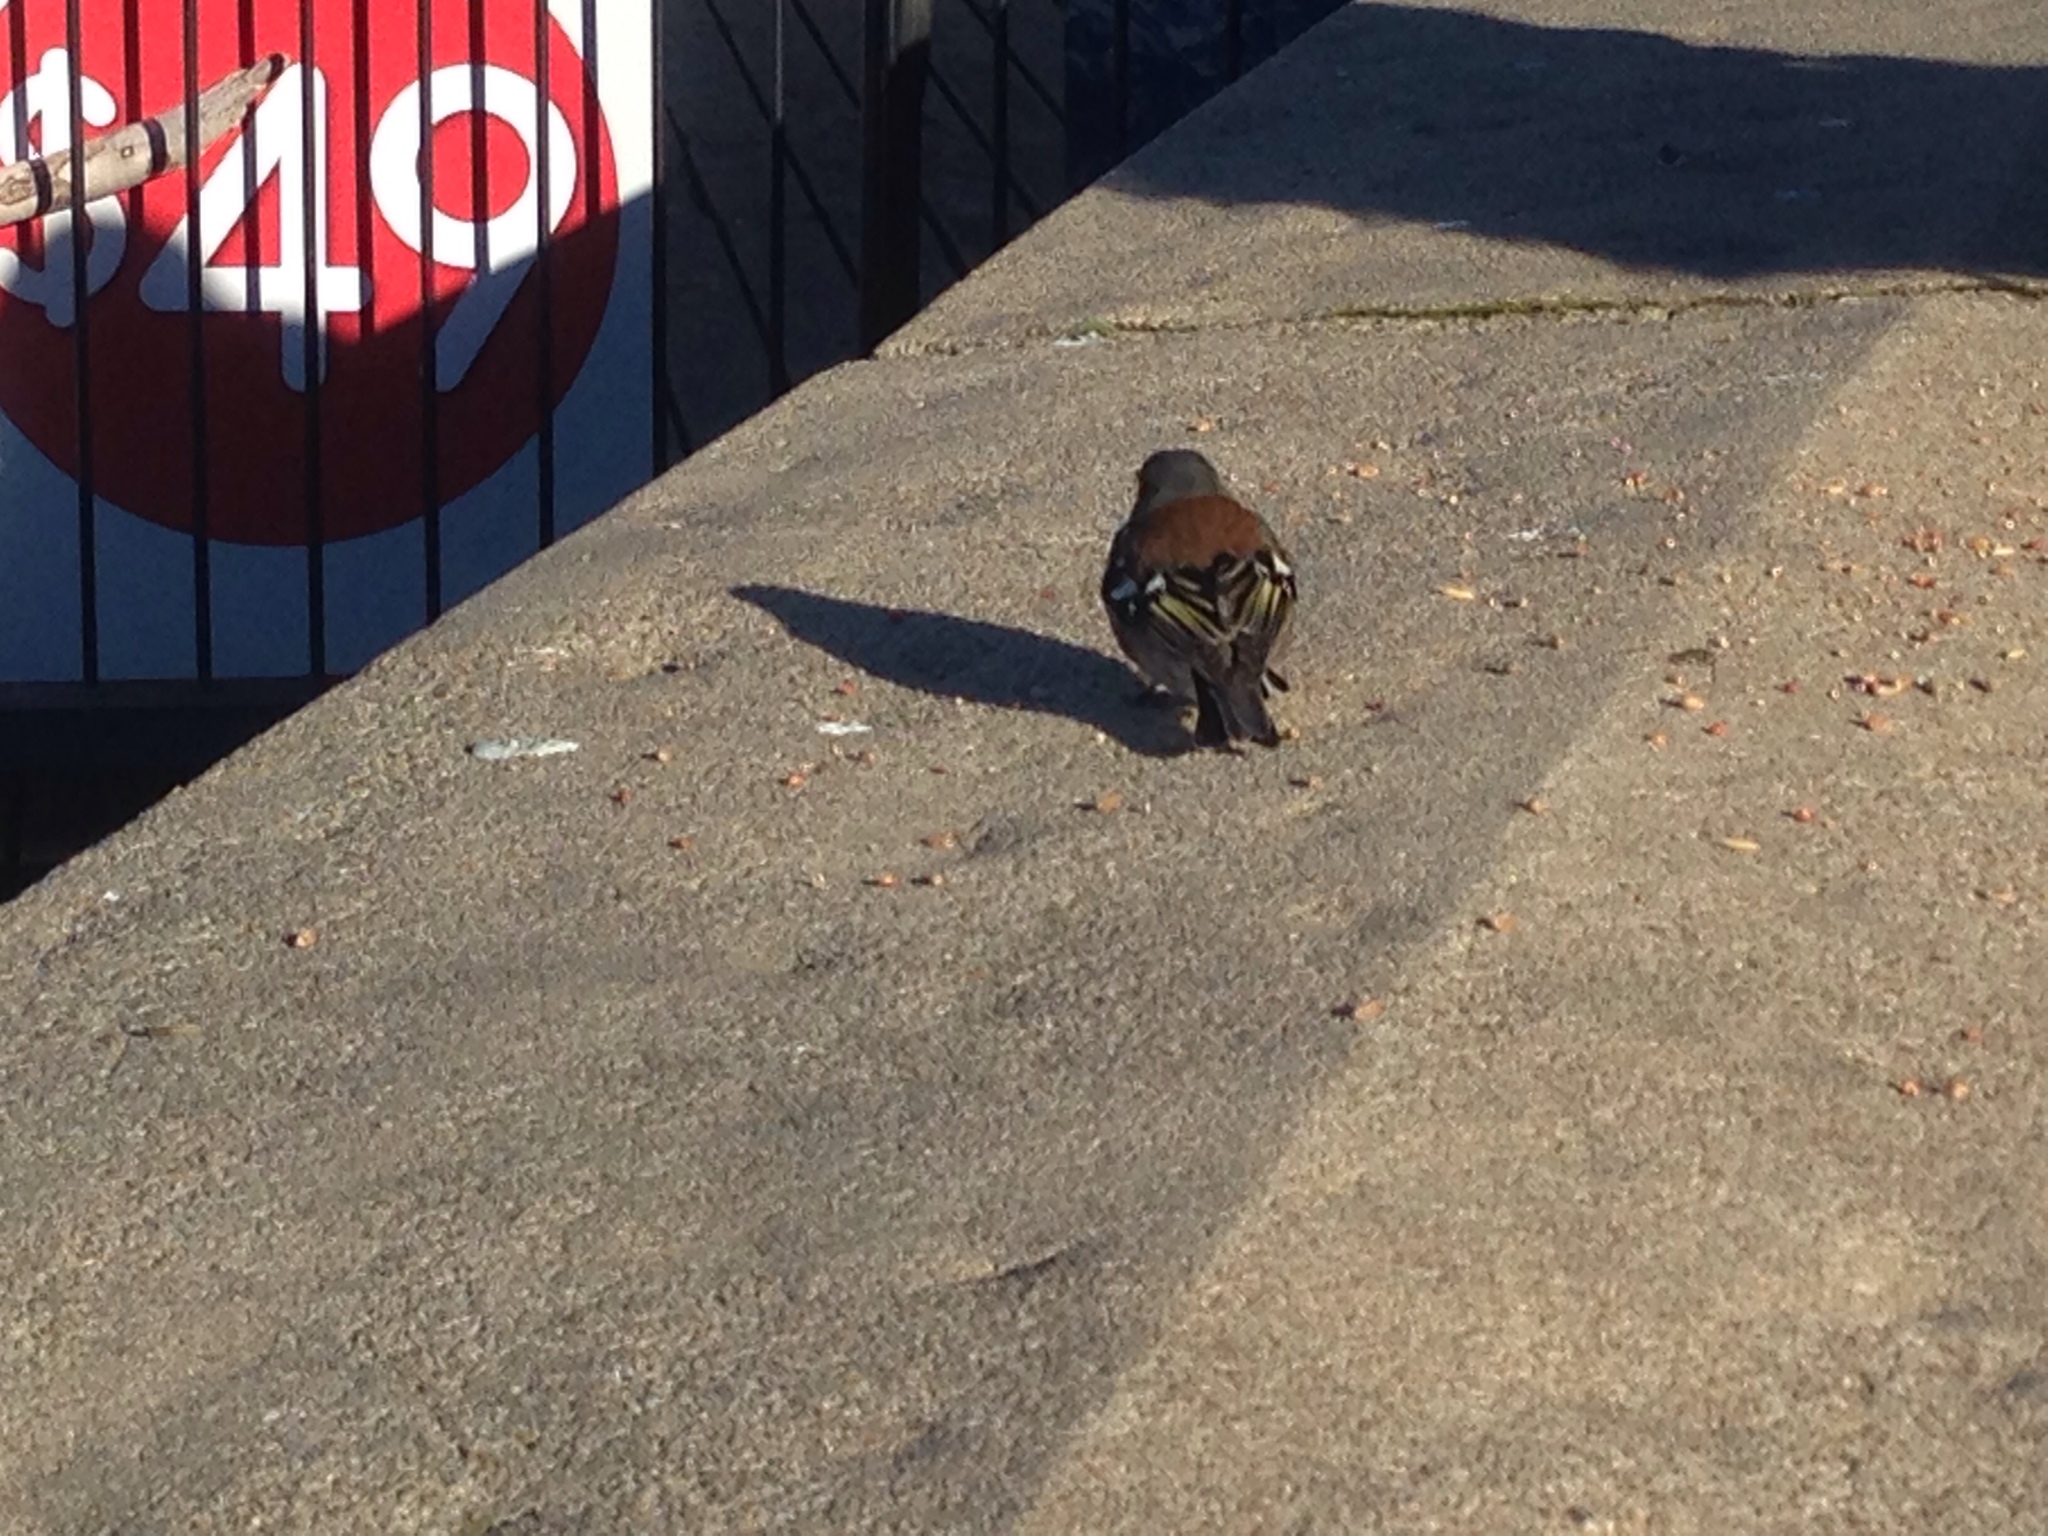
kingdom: Animalia
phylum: Chordata
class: Aves
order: Passeriformes
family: Fringillidae
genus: Fringilla
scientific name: Fringilla coelebs
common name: Common chaffinch
